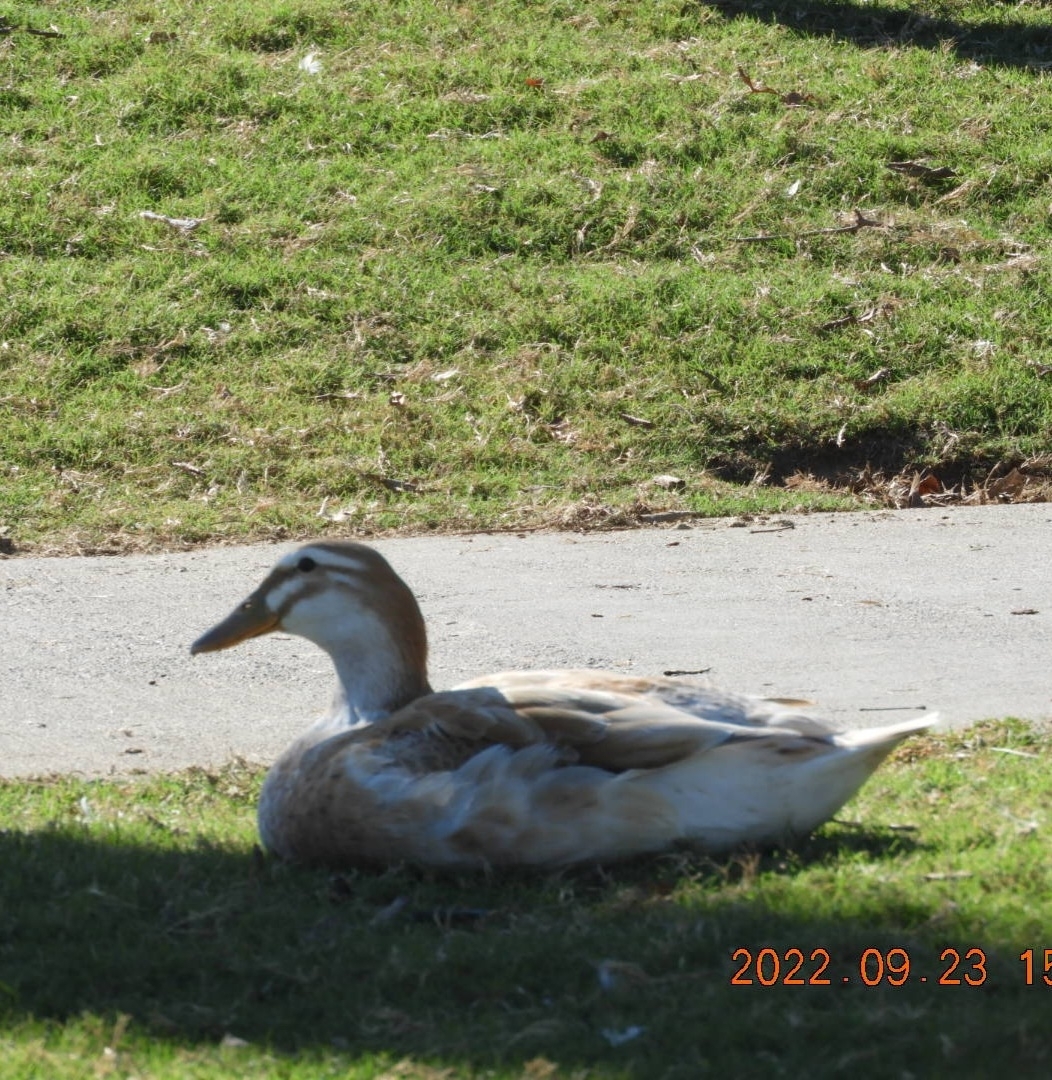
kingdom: Animalia
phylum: Chordata
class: Aves
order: Anseriformes
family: Anatidae
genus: Anas
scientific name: Anas platyrhynchos
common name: Mallard
